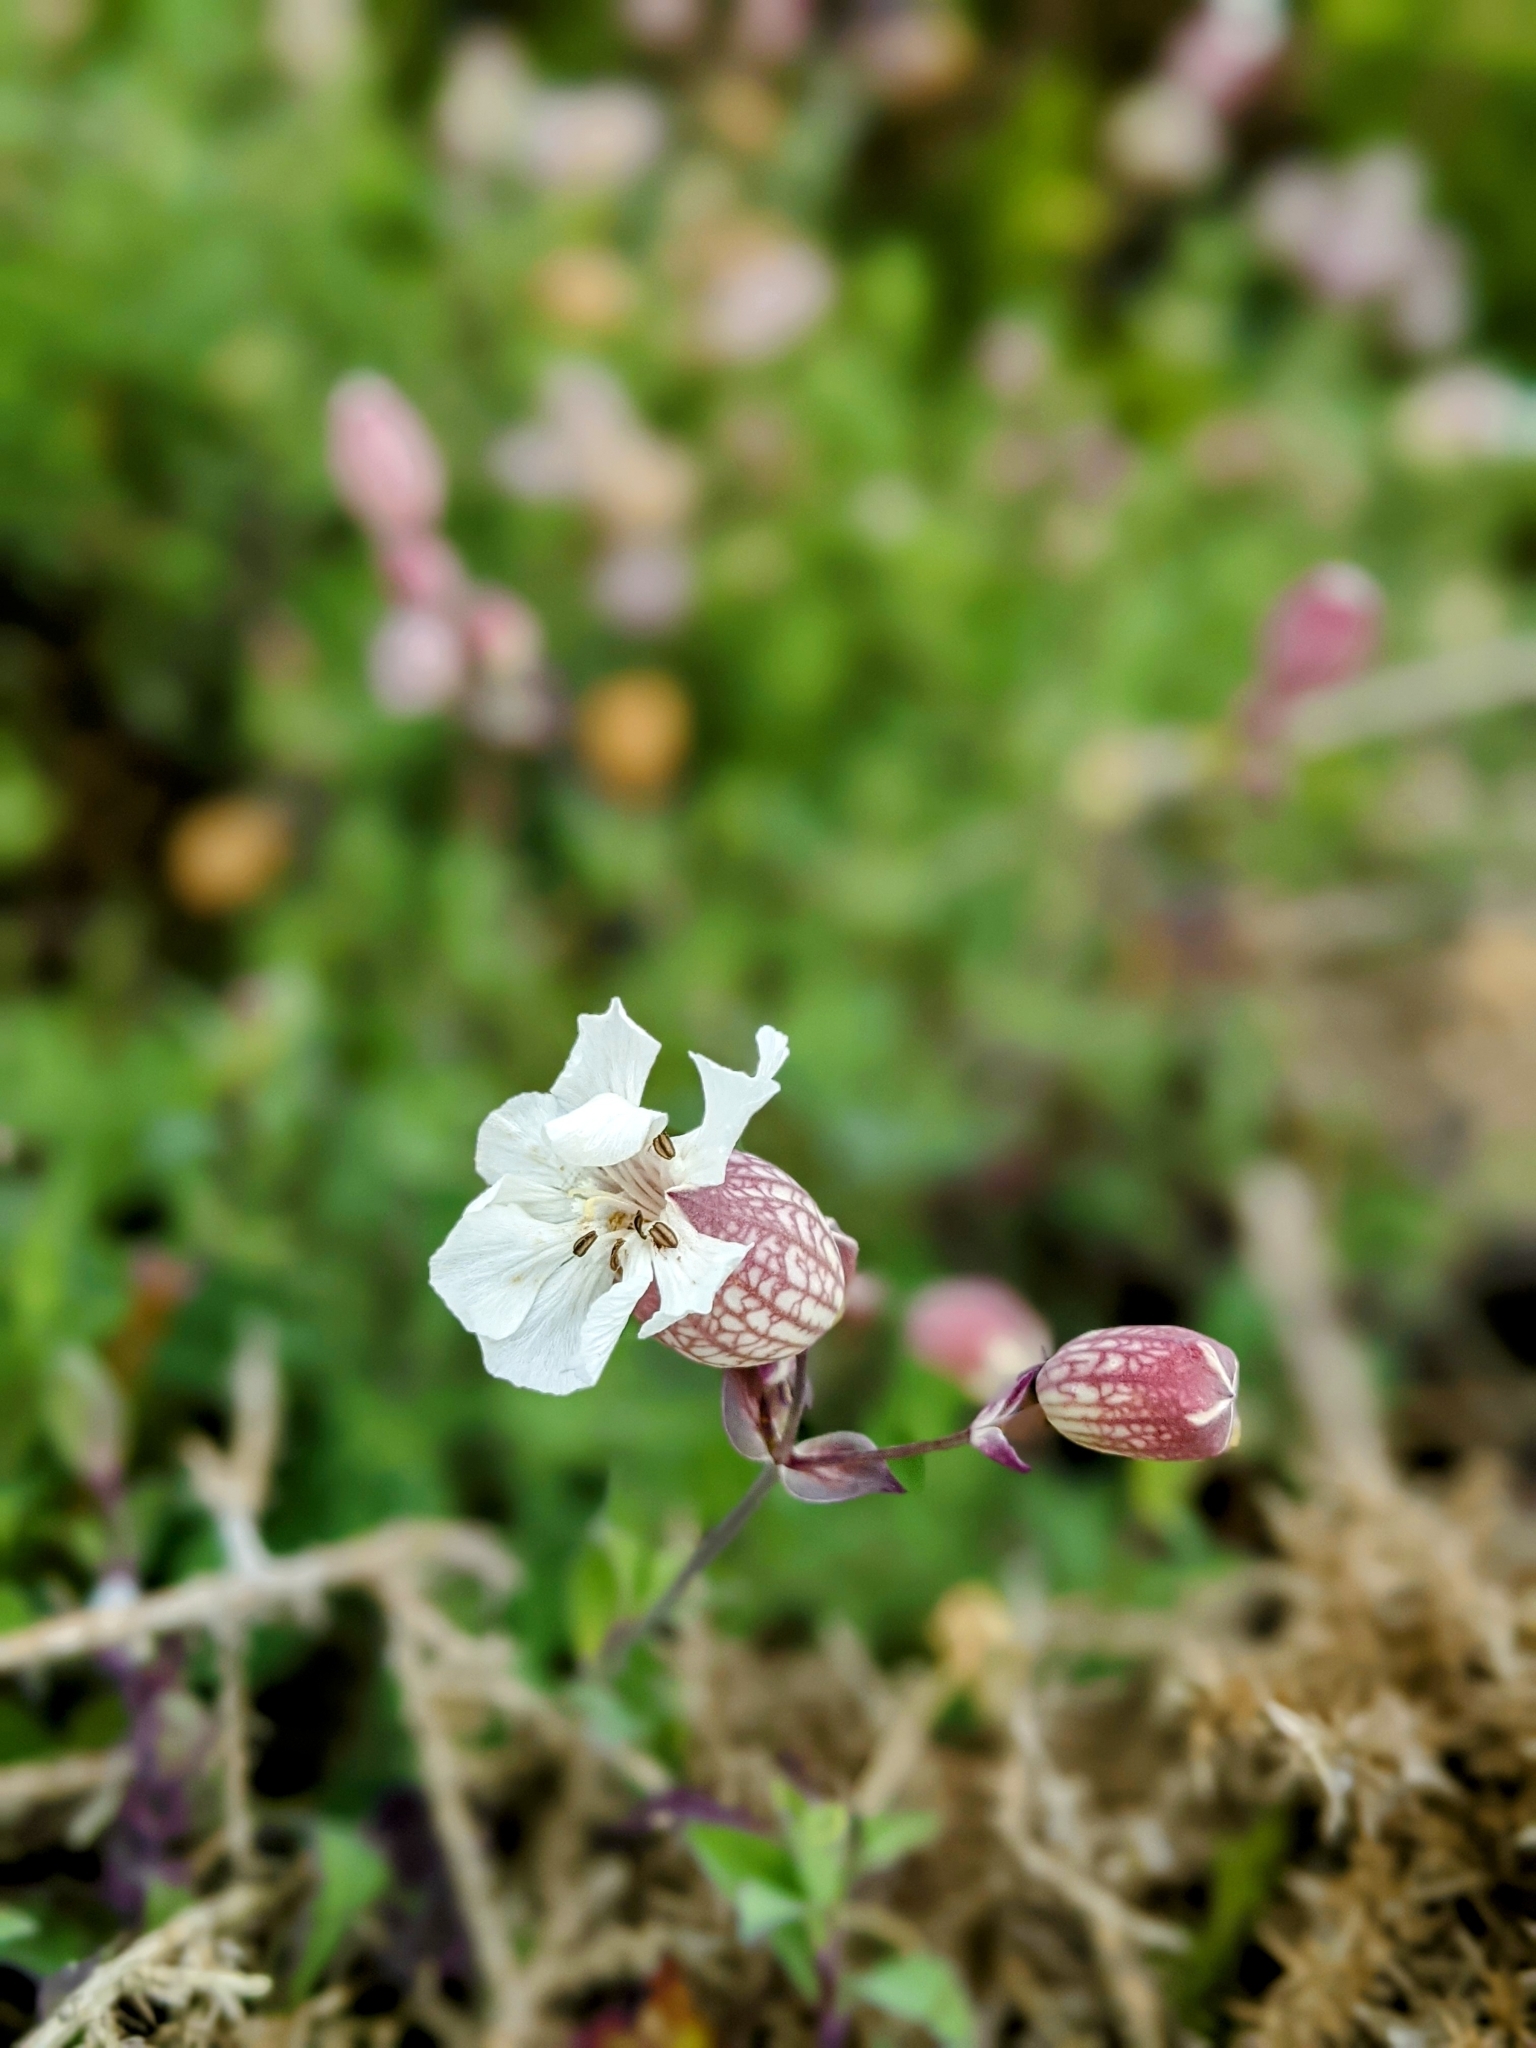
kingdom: Plantae
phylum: Tracheophyta
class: Magnoliopsida
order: Caryophyllales
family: Caryophyllaceae
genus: Silene
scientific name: Silene uniflora
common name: Sea campion
